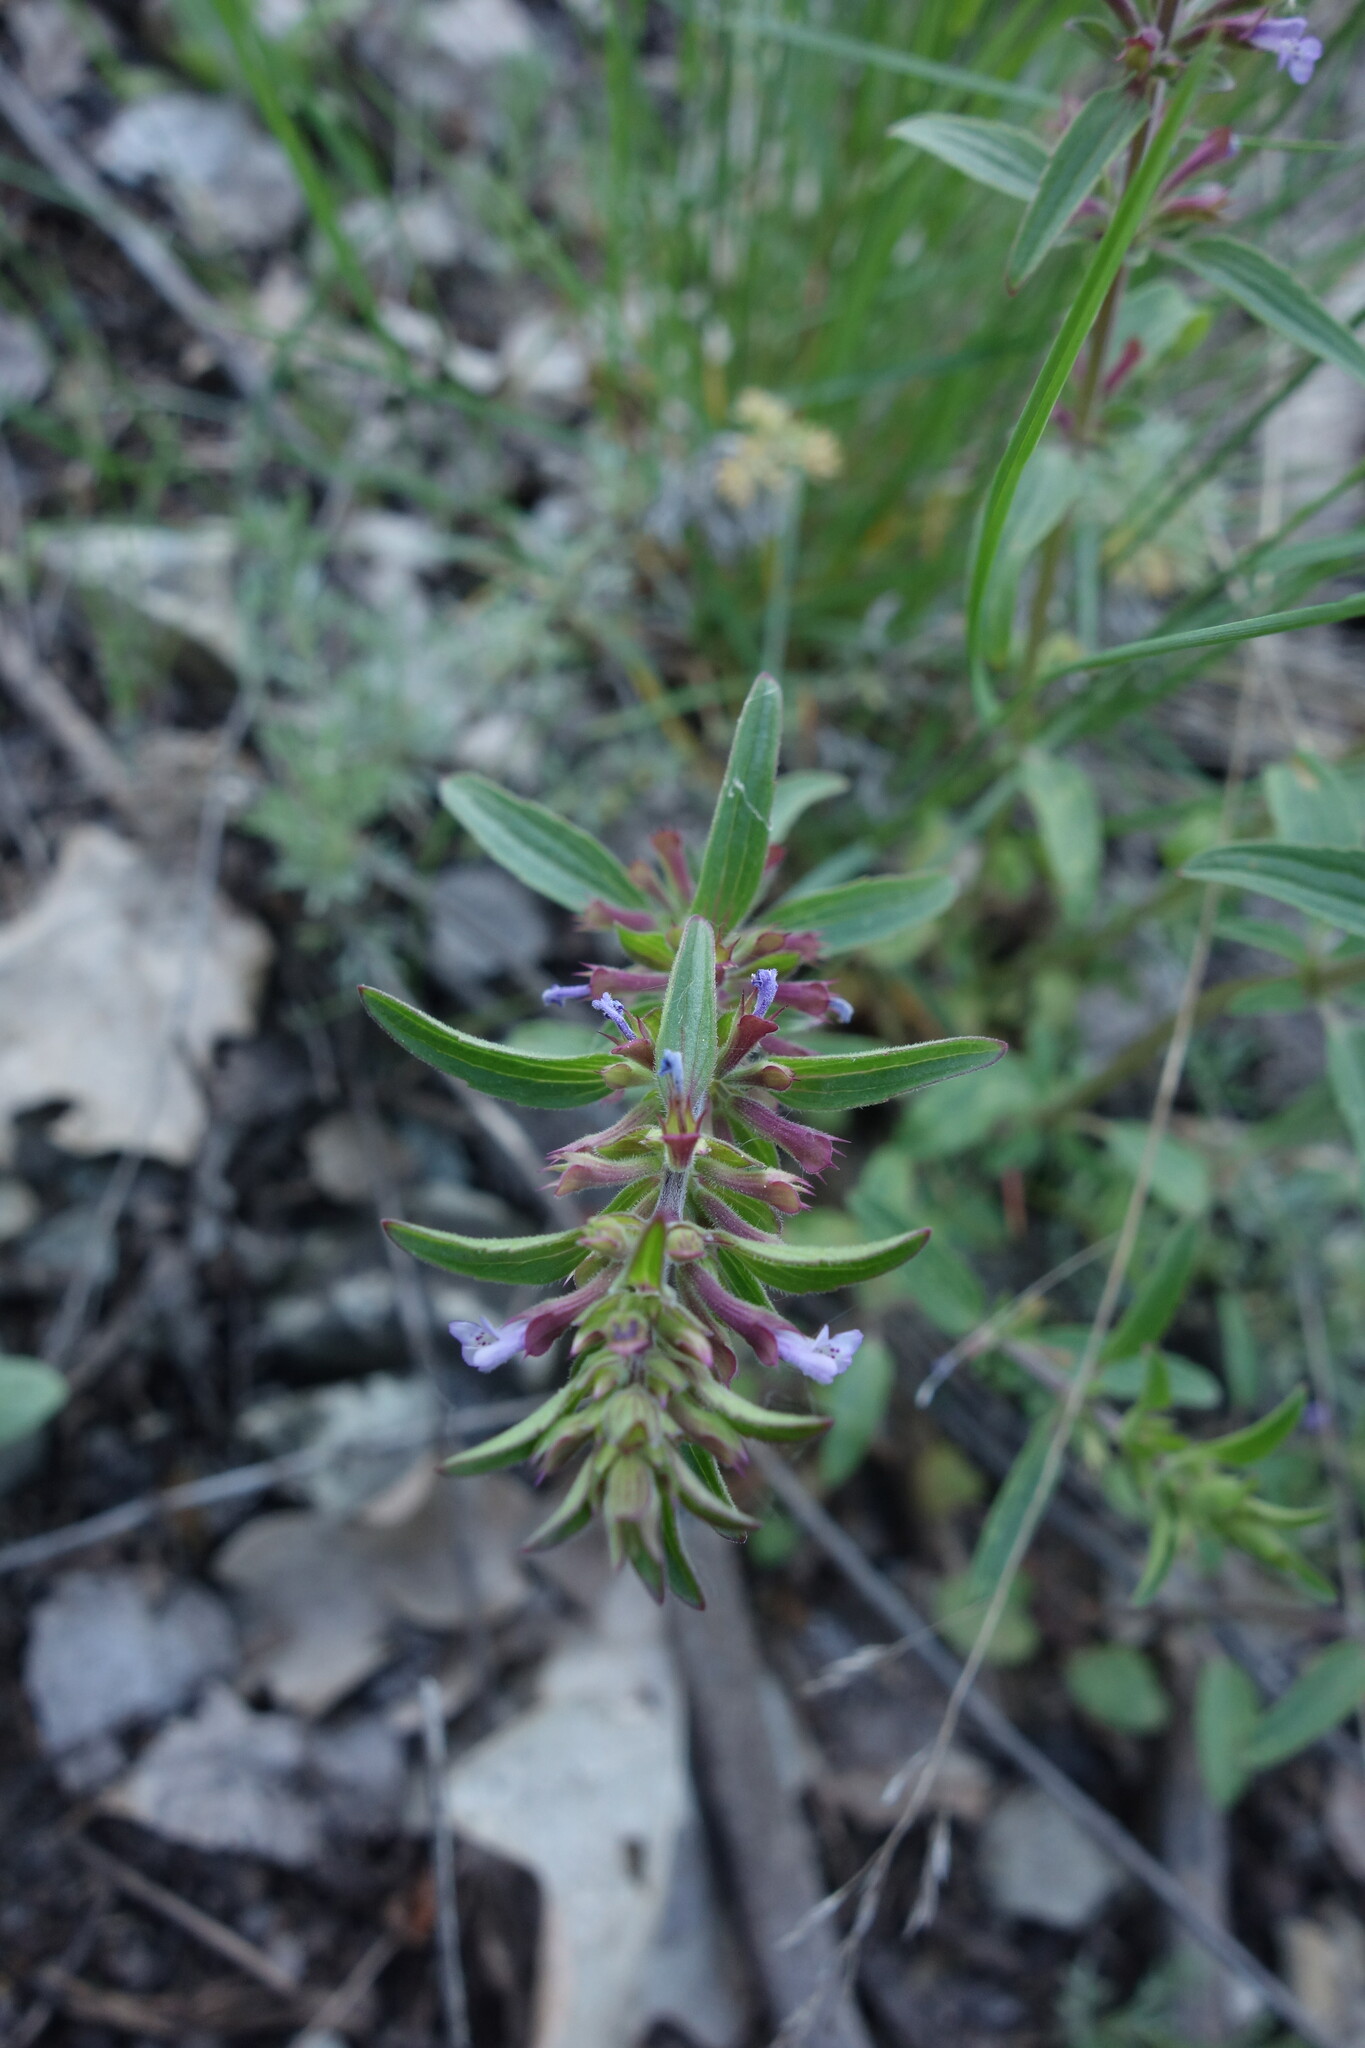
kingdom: Plantae
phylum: Tracheophyta
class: Magnoliopsida
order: Lamiales
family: Lamiaceae
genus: Dracocephalum
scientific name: Dracocephalum thymiflorum
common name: Thymeleaf dragonhead
